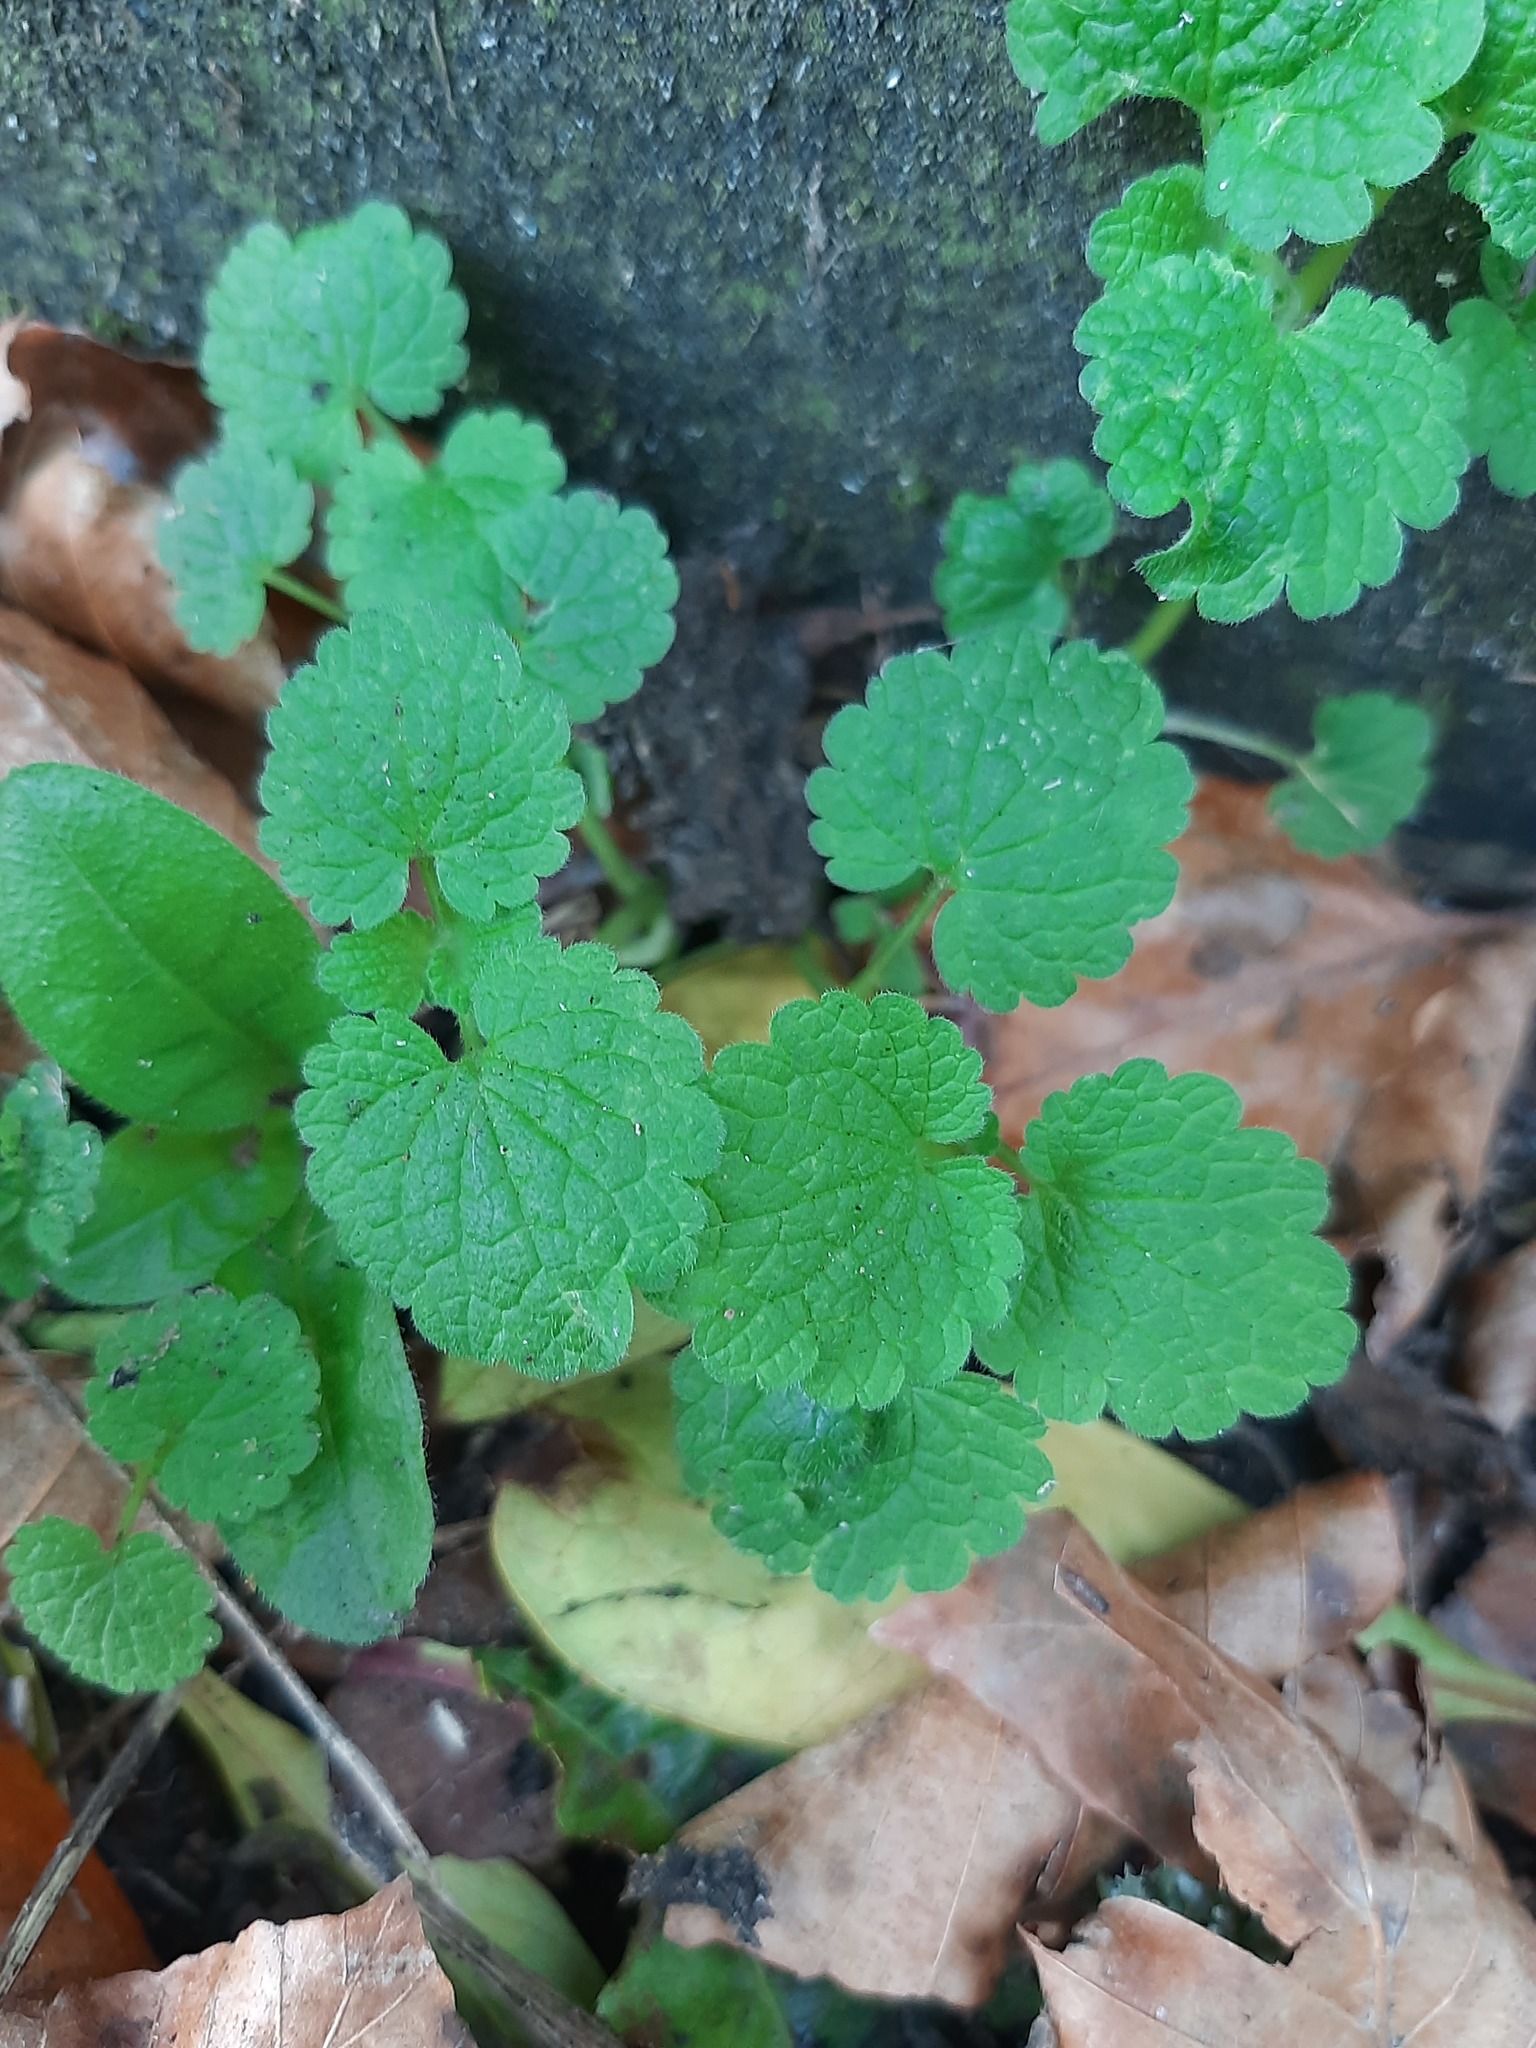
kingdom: Plantae
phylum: Tracheophyta
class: Magnoliopsida
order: Lamiales
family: Lamiaceae
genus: Lamium
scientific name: Lamium purpureum
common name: Red dead-nettle
